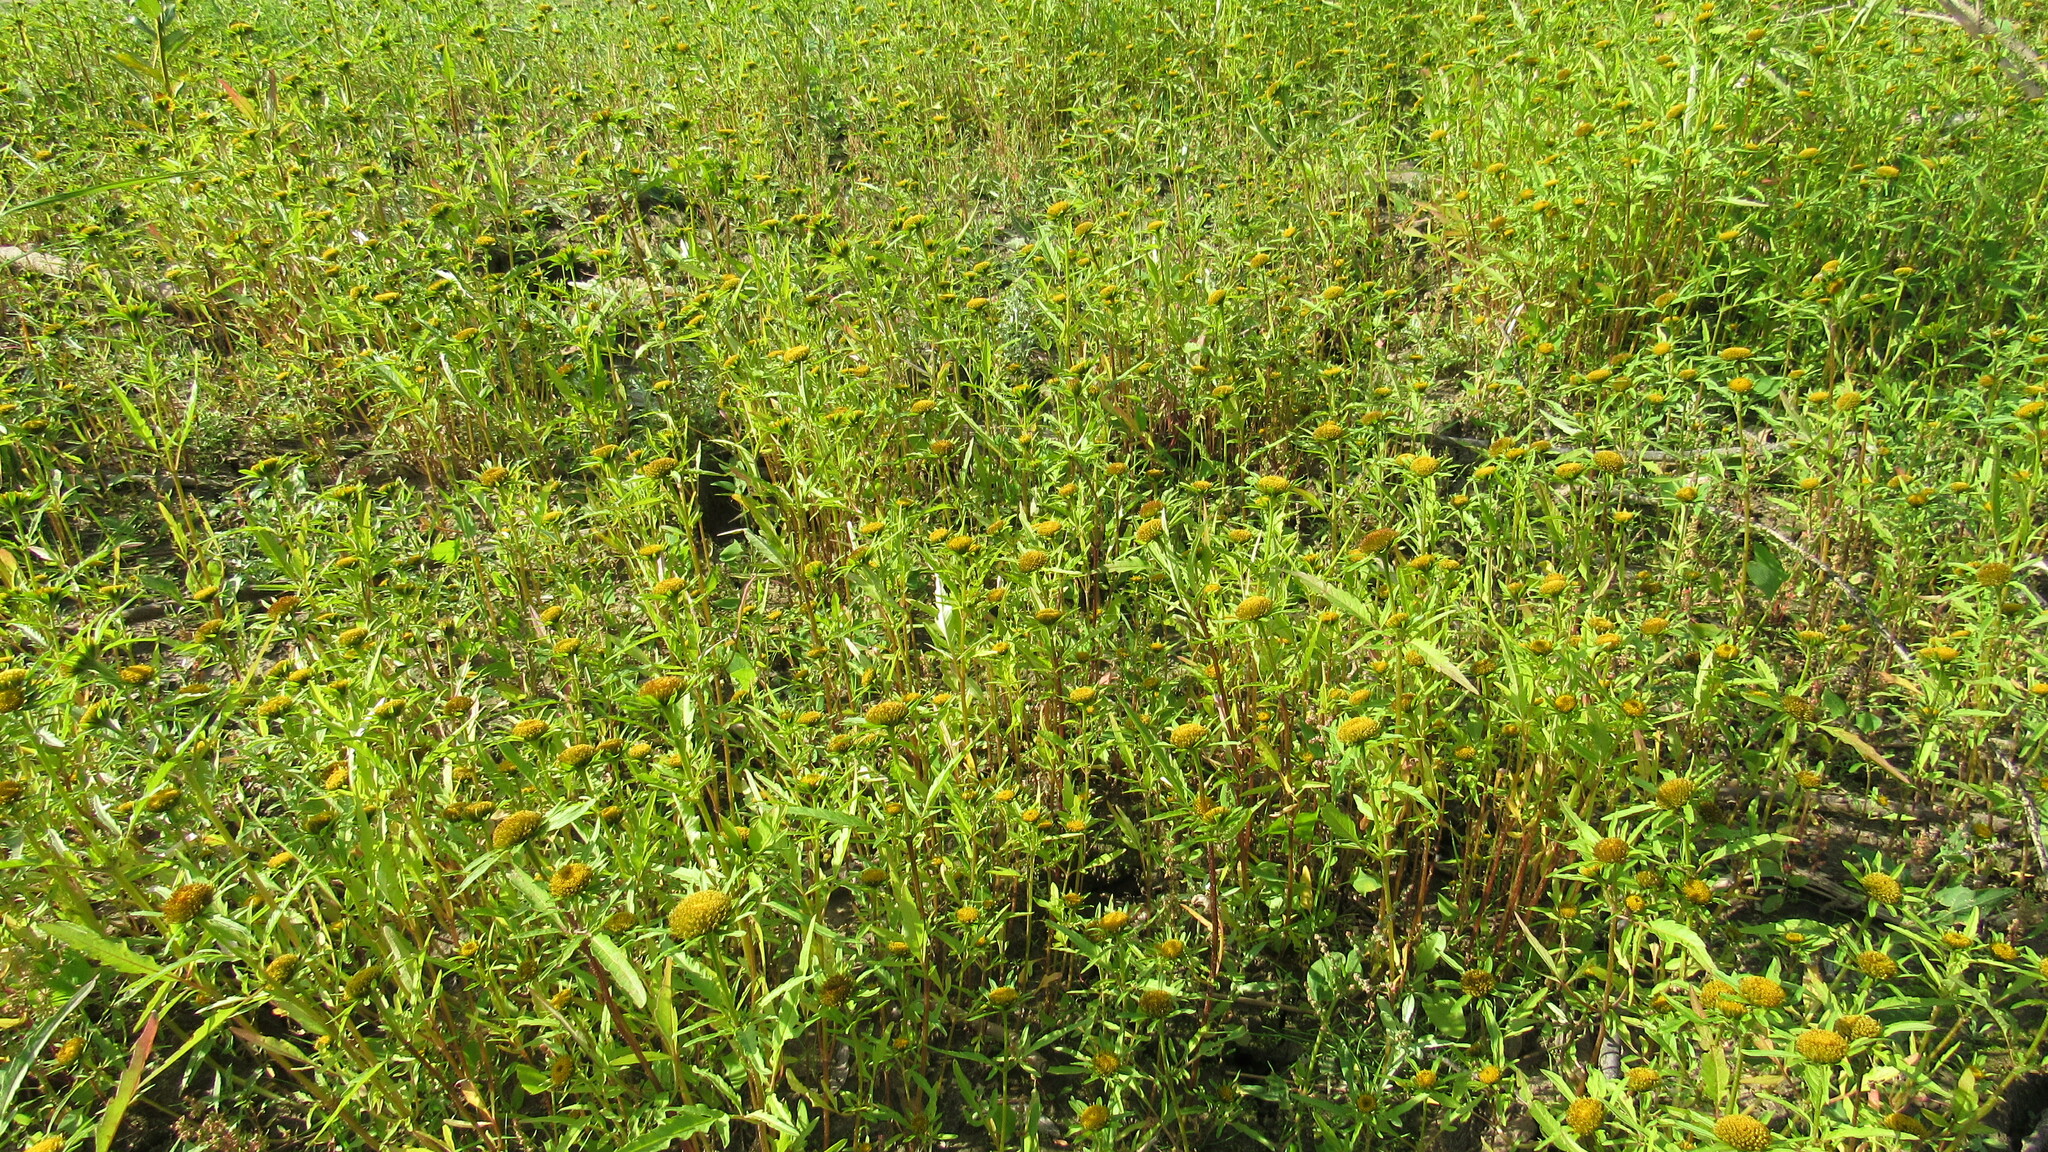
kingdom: Plantae
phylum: Tracheophyta
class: Magnoliopsida
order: Asterales
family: Asteraceae
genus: Bidens
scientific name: Bidens radiata
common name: Radiating bur-marigold
